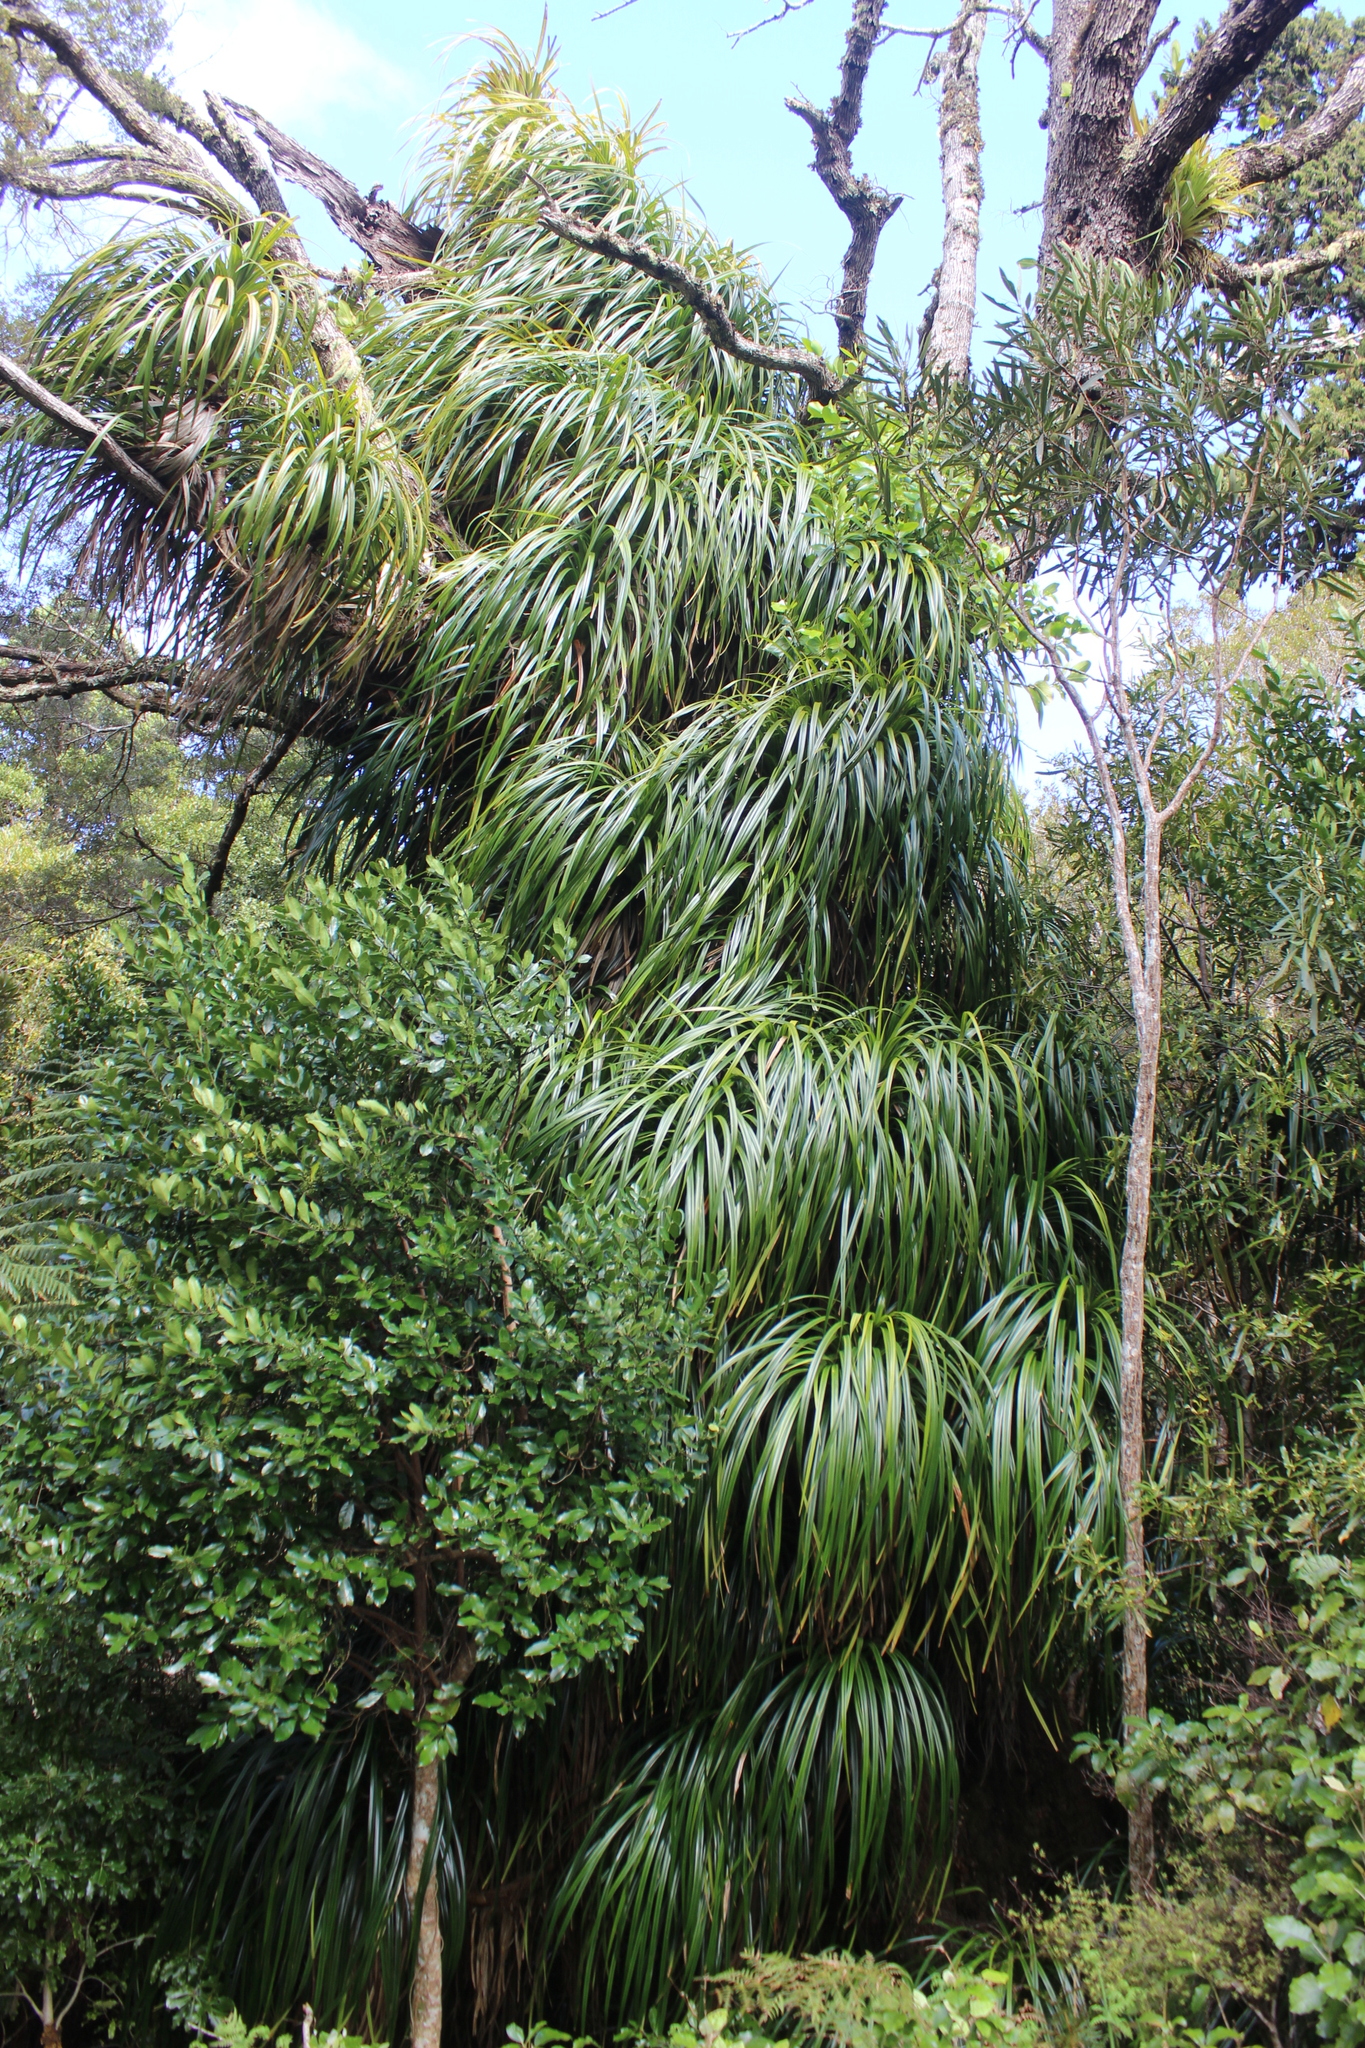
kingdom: Plantae
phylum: Tracheophyta
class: Liliopsida
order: Pandanales
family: Pandanaceae
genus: Freycinetia
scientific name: Freycinetia banksii
